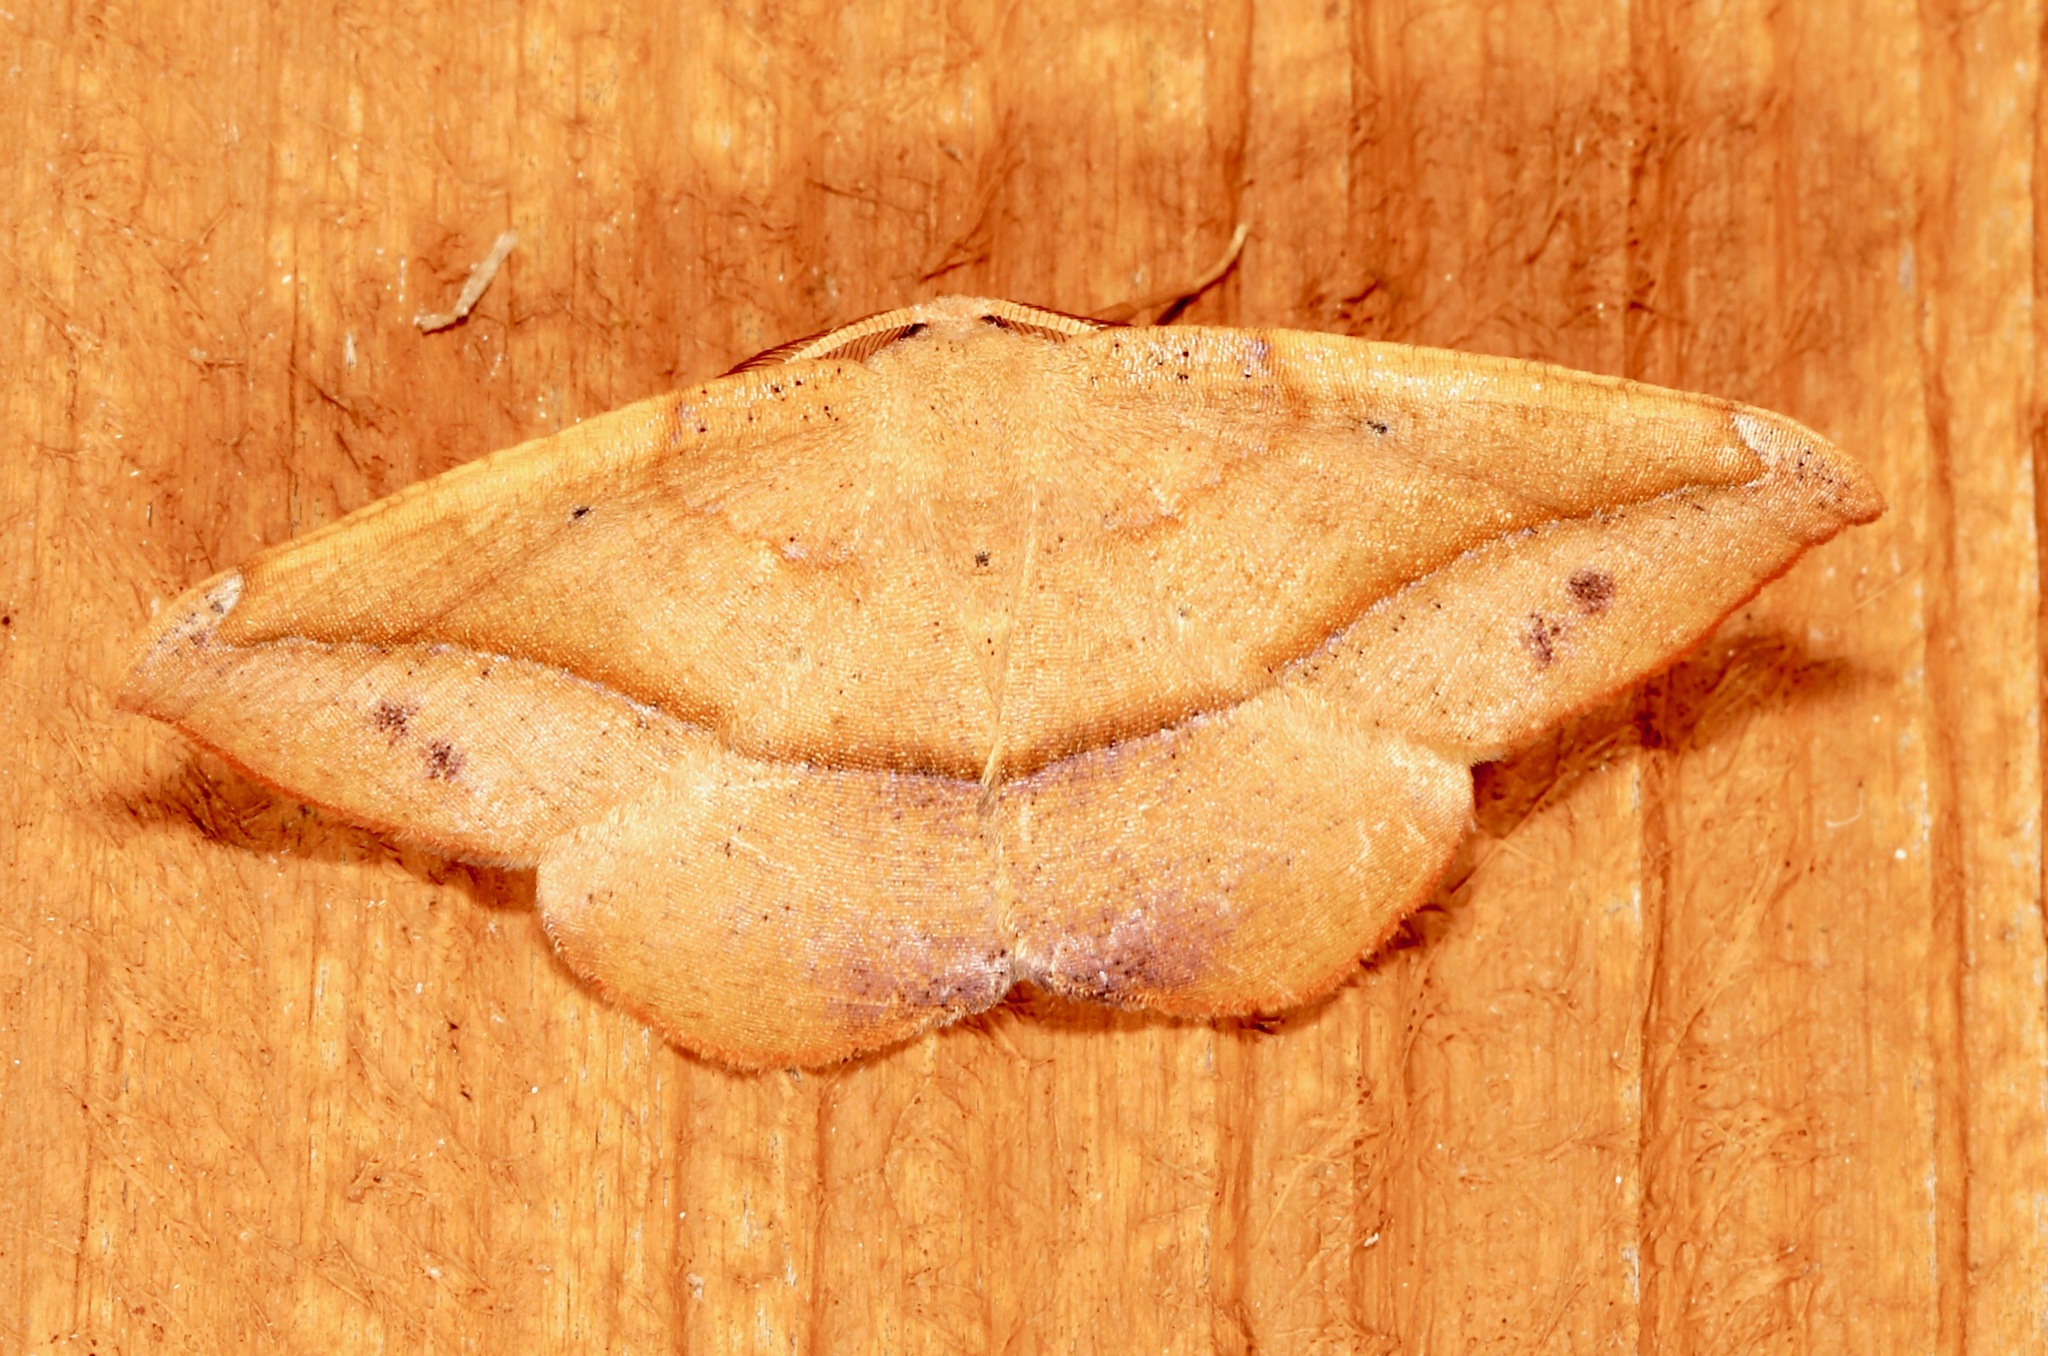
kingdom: Animalia
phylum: Arthropoda
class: Insecta
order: Lepidoptera
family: Geometridae
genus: Patalene
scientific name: Patalene olyzonaria
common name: Juniper geometer moth
